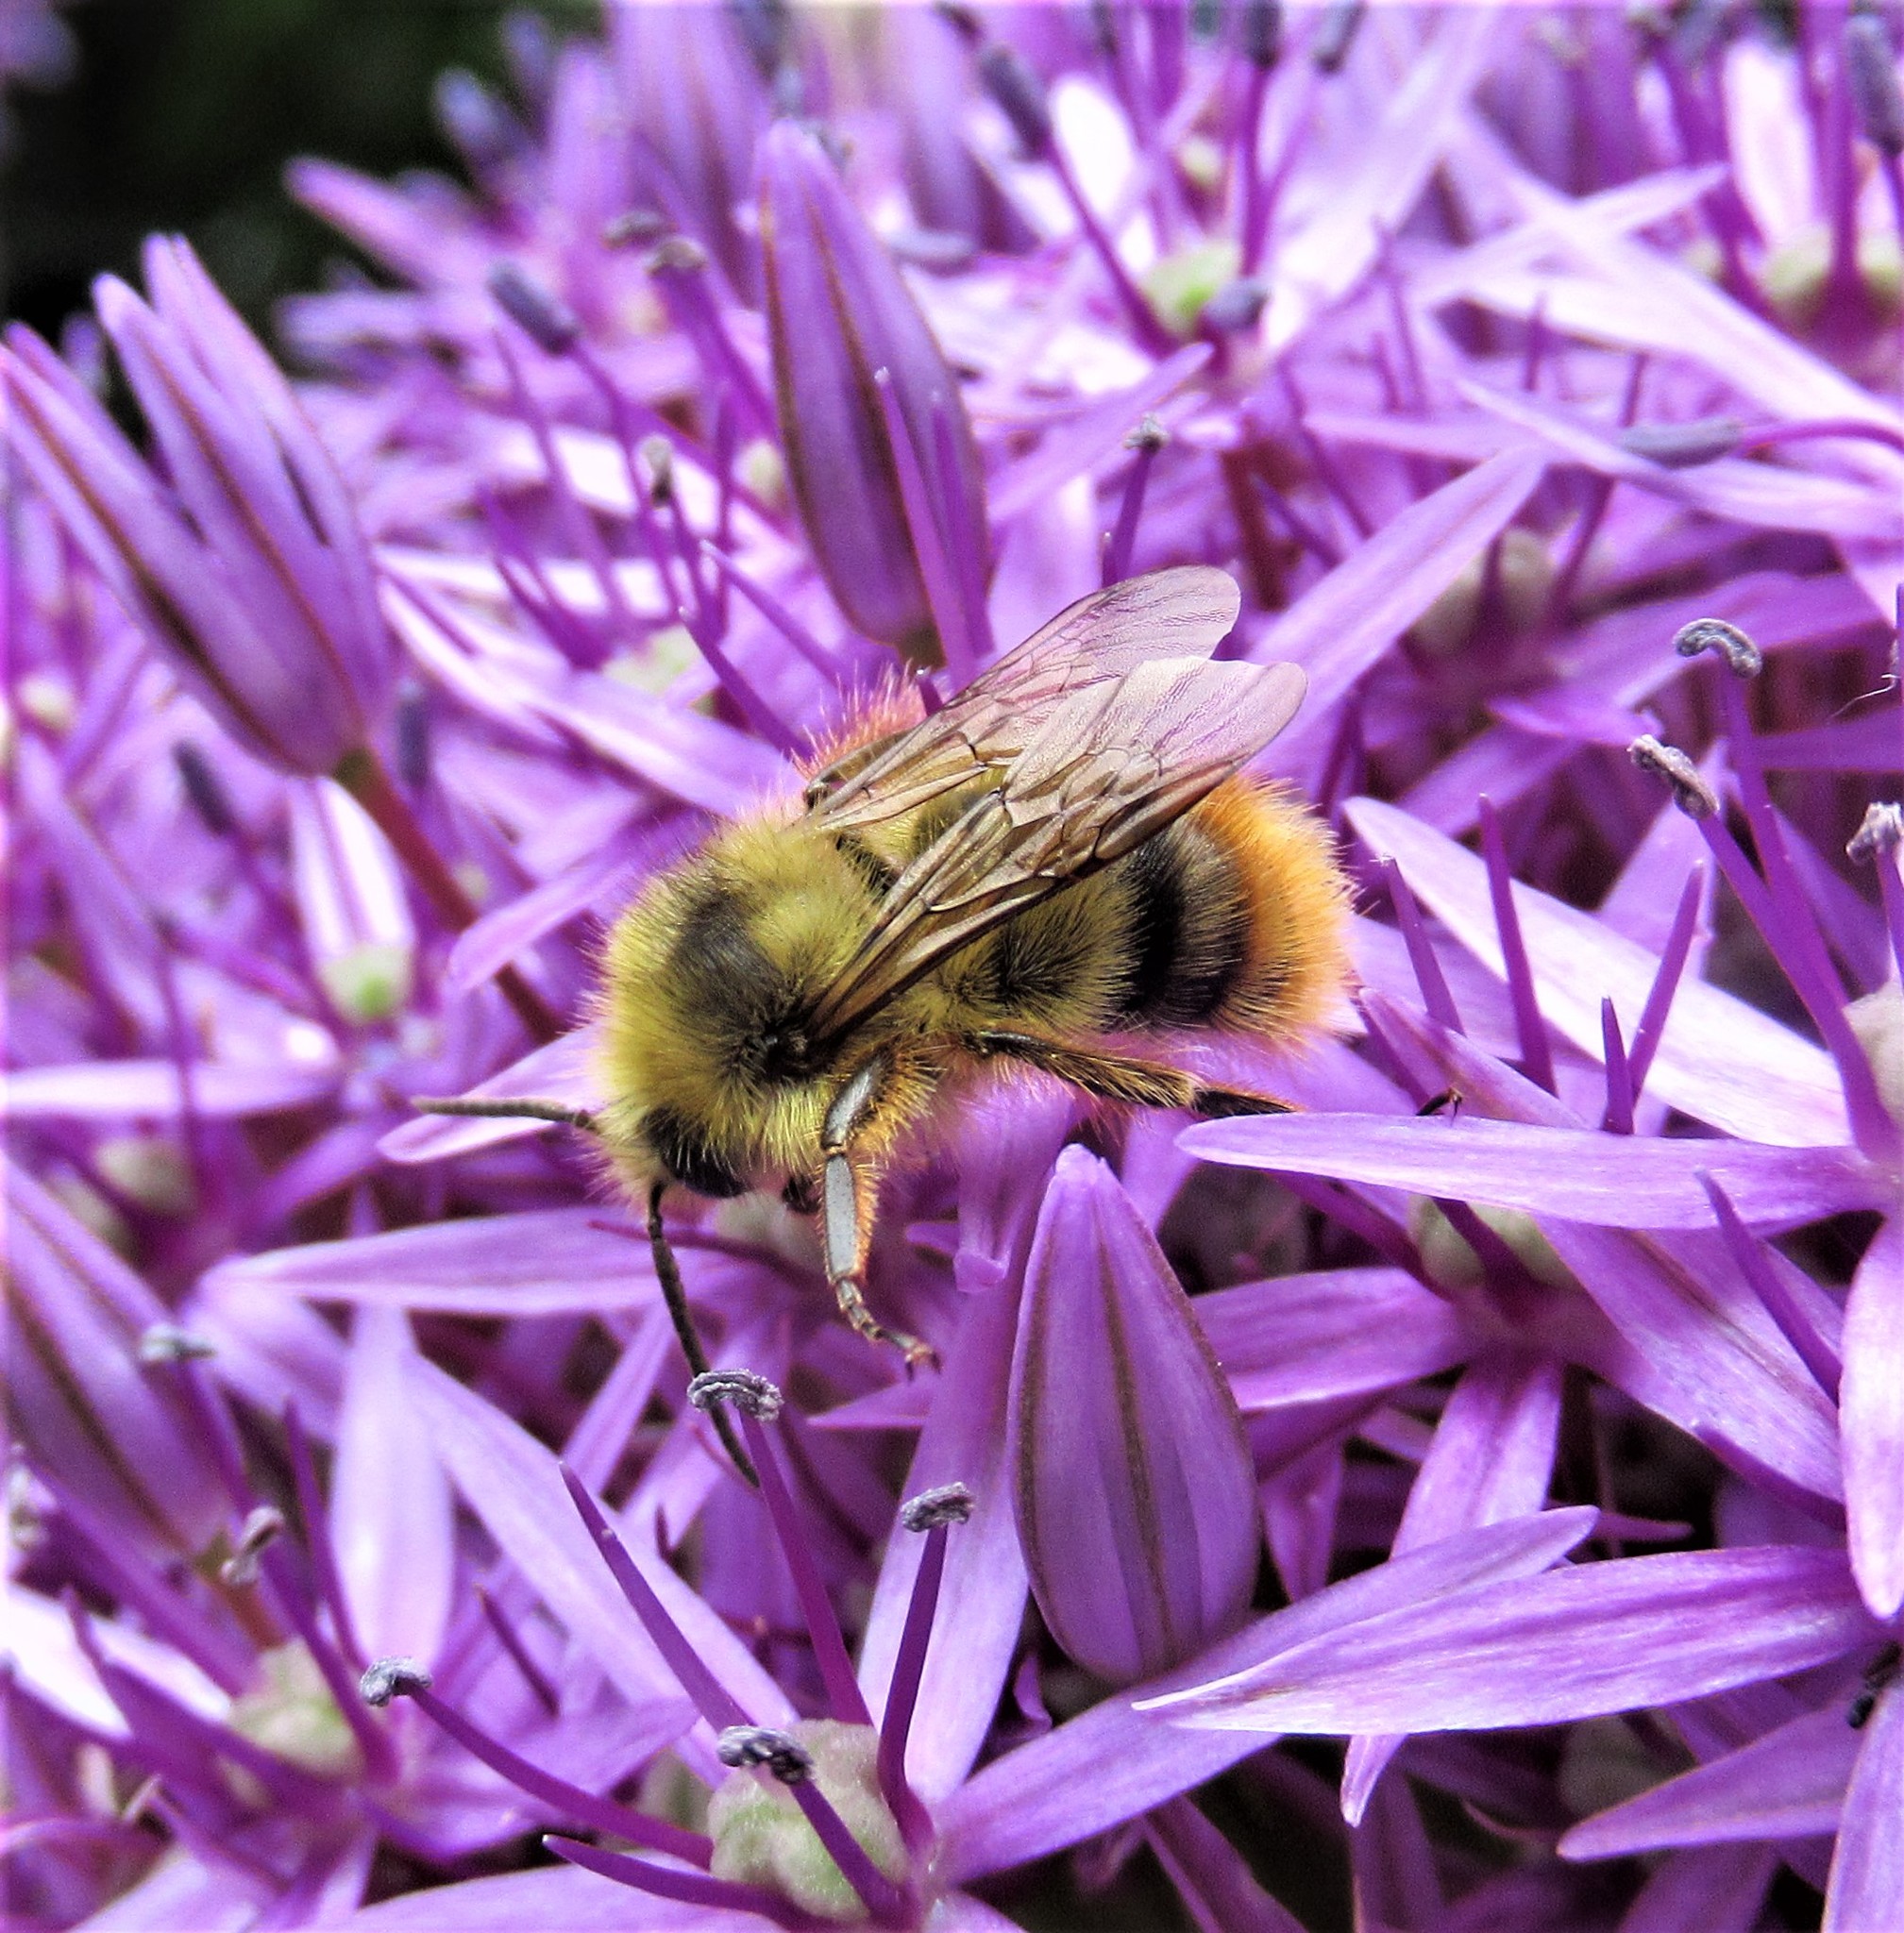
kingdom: Animalia
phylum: Arthropoda
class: Insecta
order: Hymenoptera
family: Apidae
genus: Bombus
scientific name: Bombus mixtus
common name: Fuzzy-horned bumble bee
